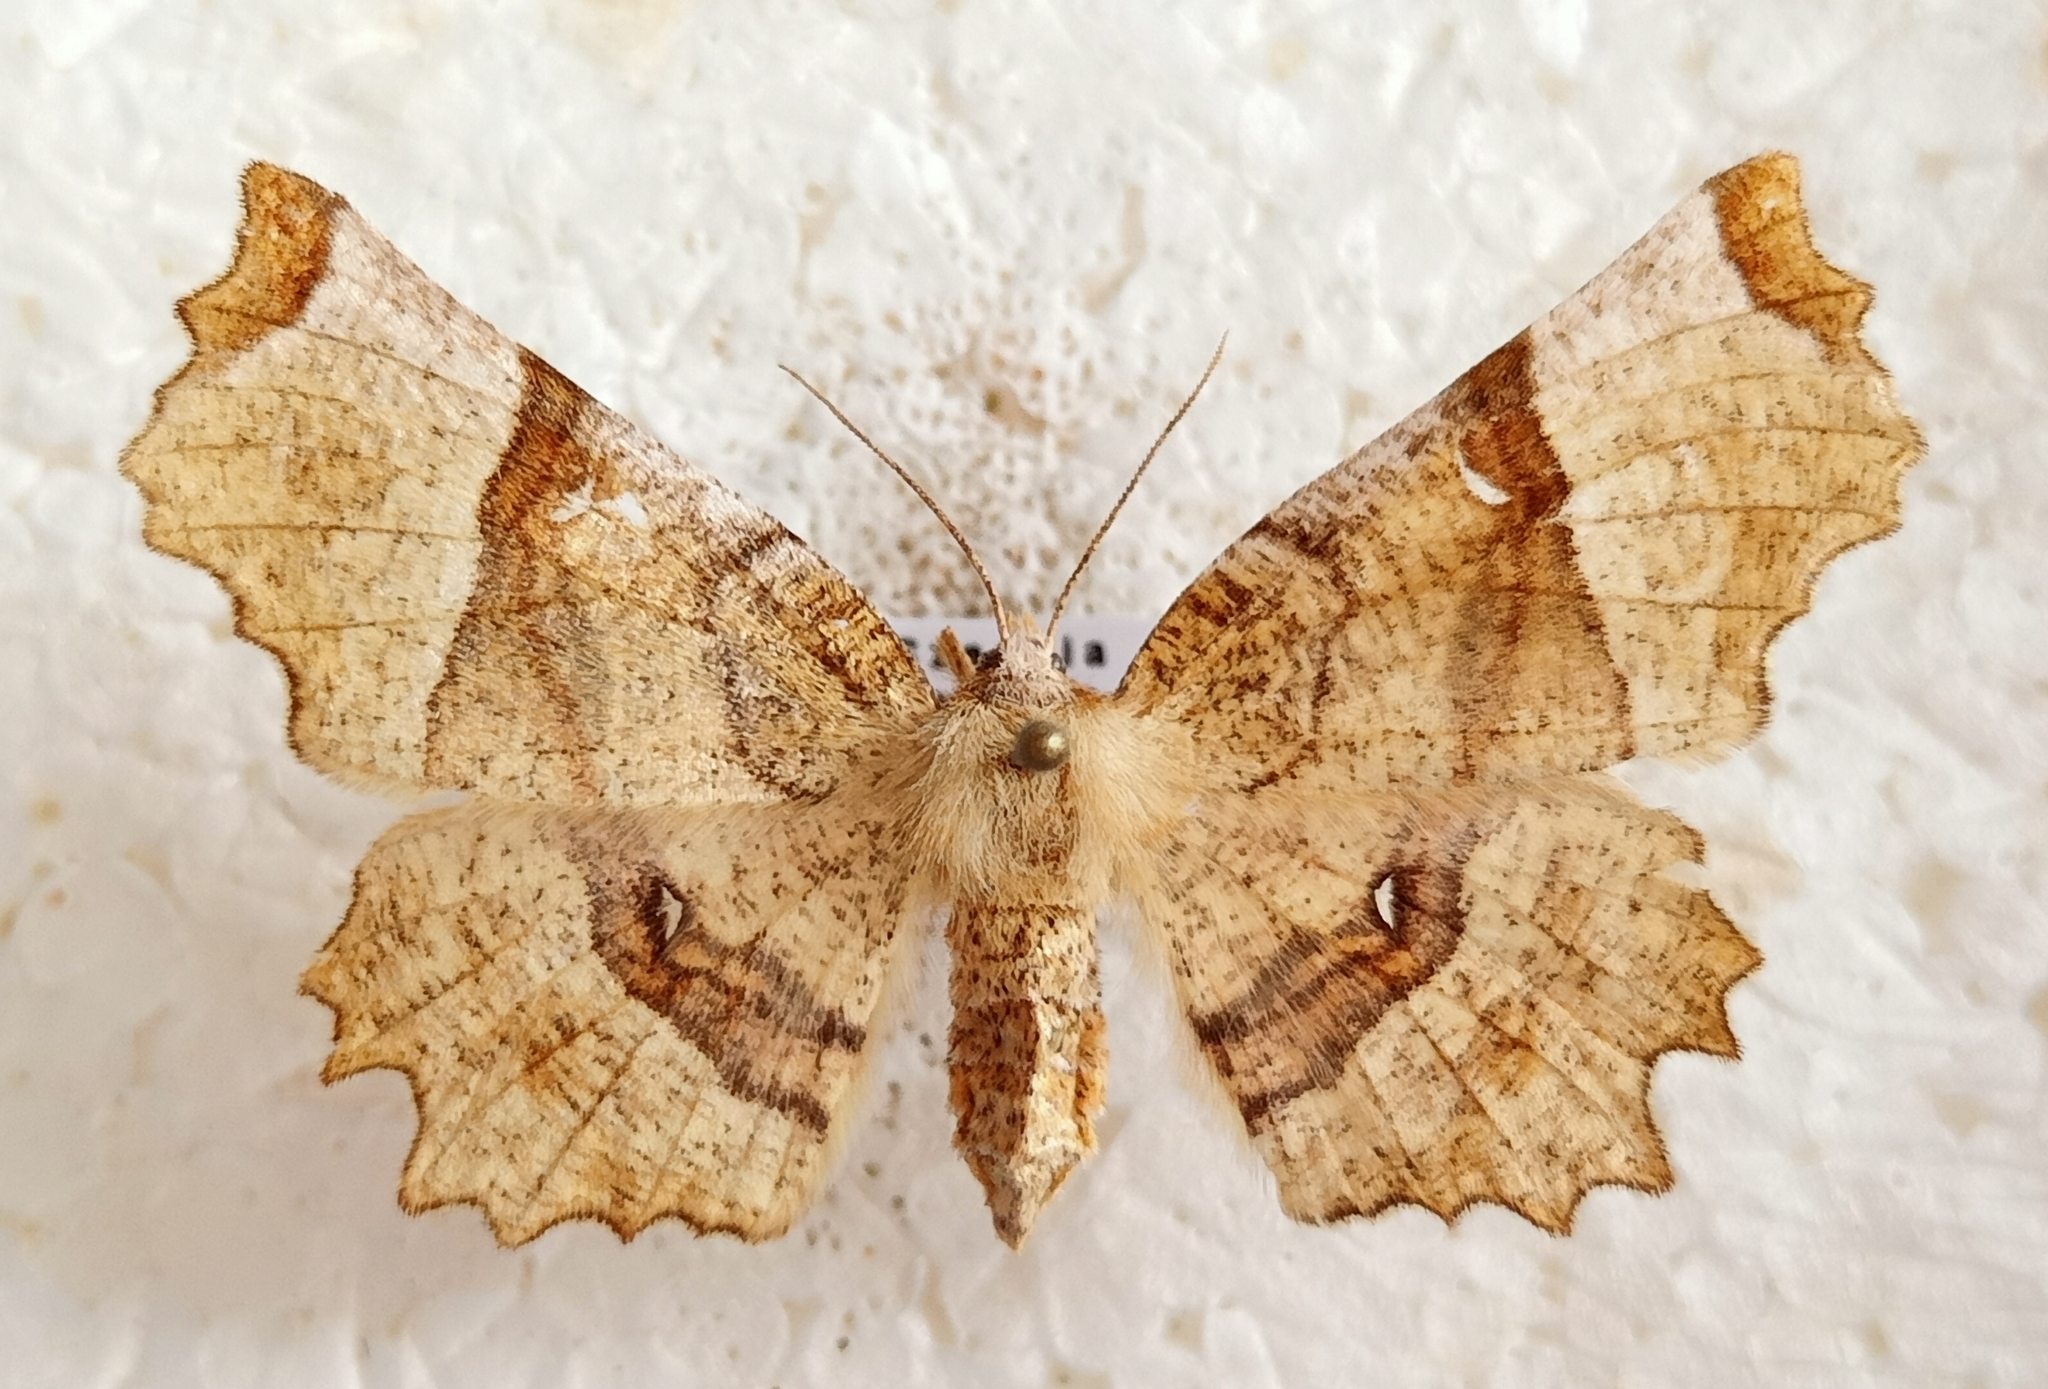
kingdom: Animalia
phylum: Arthropoda
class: Insecta
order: Lepidoptera
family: Geometridae
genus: Selenia
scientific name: Selenia lunularia
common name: Lunar thorn
